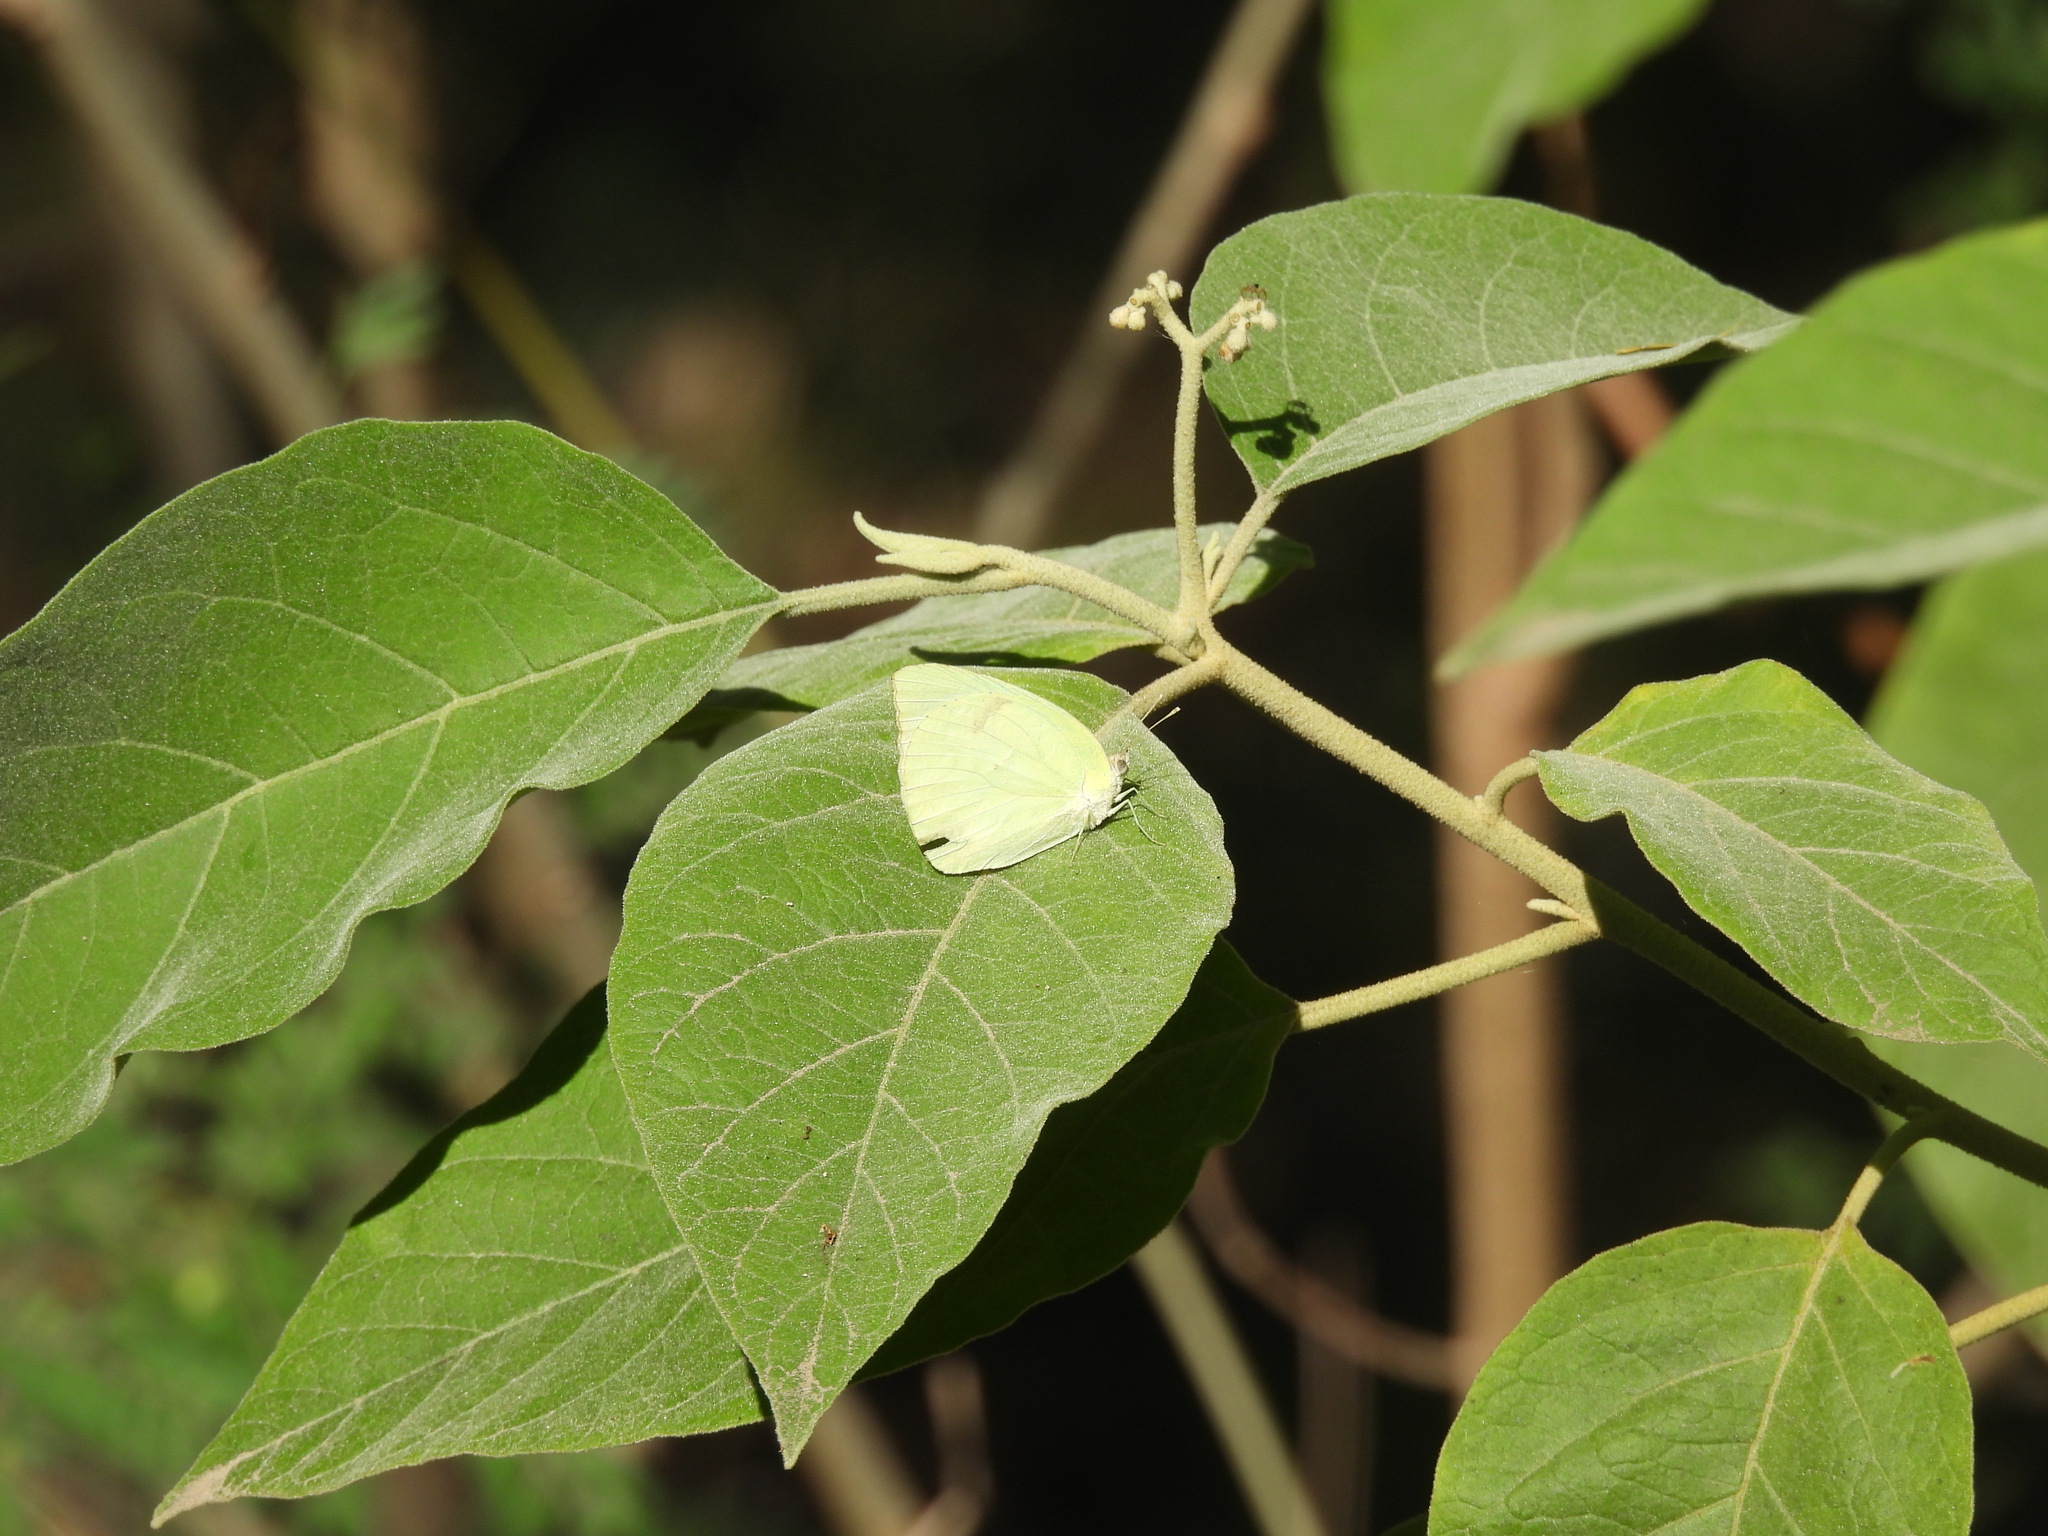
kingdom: Animalia
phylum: Arthropoda
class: Insecta
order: Lepidoptera
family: Pieridae
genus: Kricogonia
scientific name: Kricogonia lyside
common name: Guayacan sulphur,
